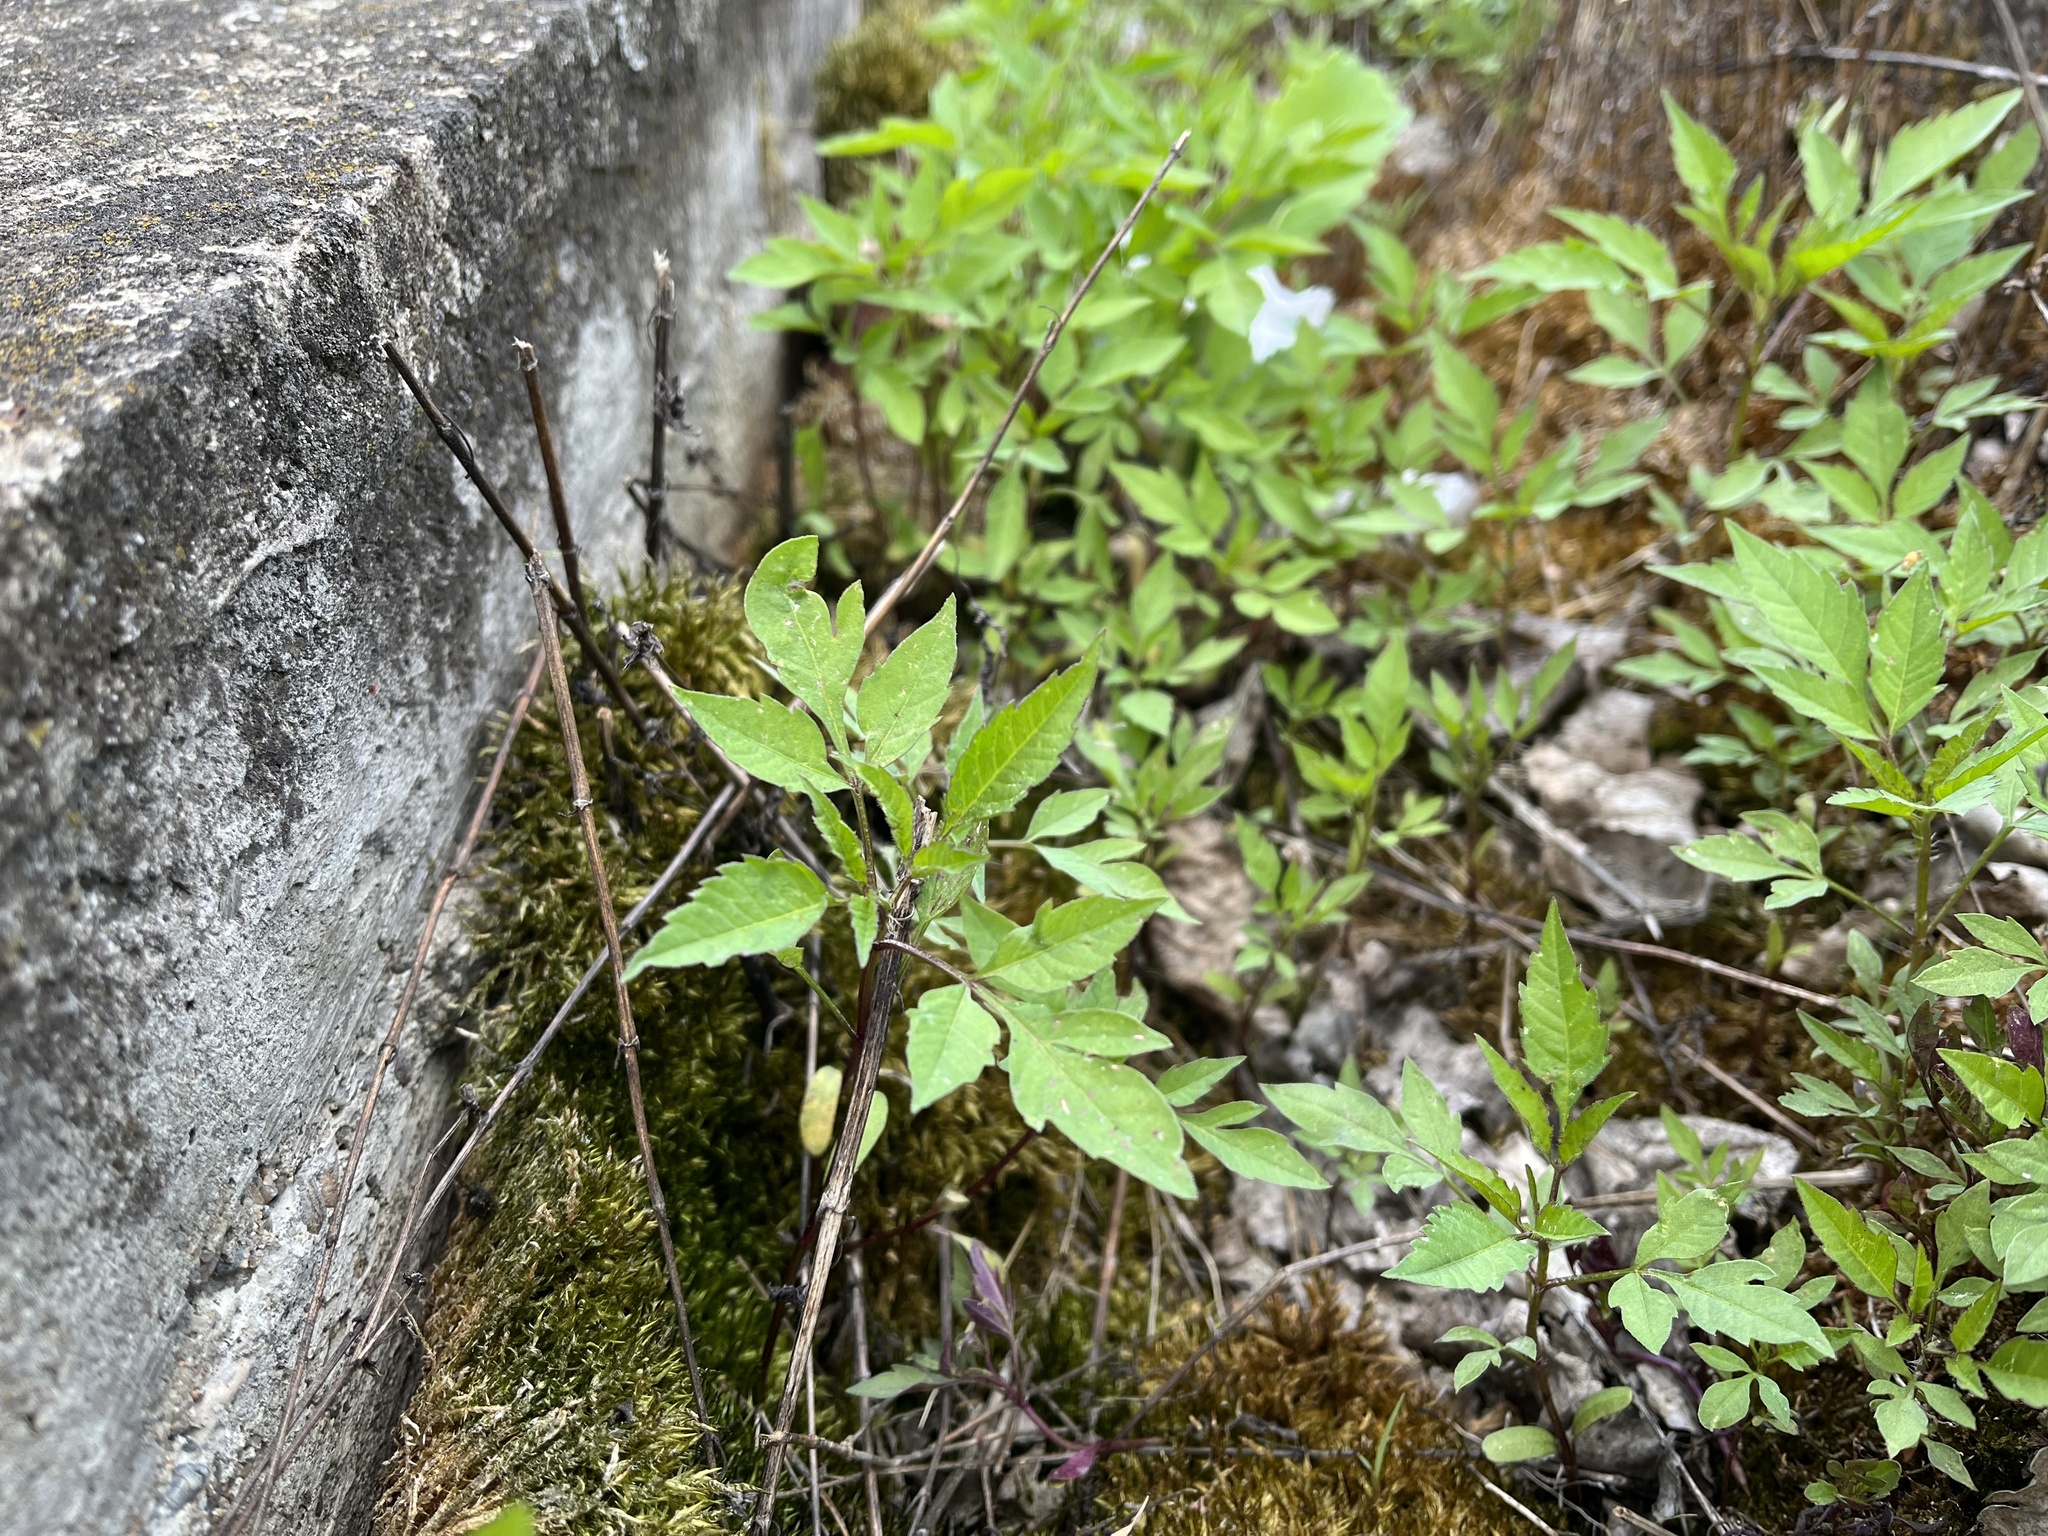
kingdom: Plantae
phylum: Tracheophyta
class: Magnoliopsida
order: Asterales
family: Asteraceae
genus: Bidens
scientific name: Bidens frondosa
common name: Beggarticks
